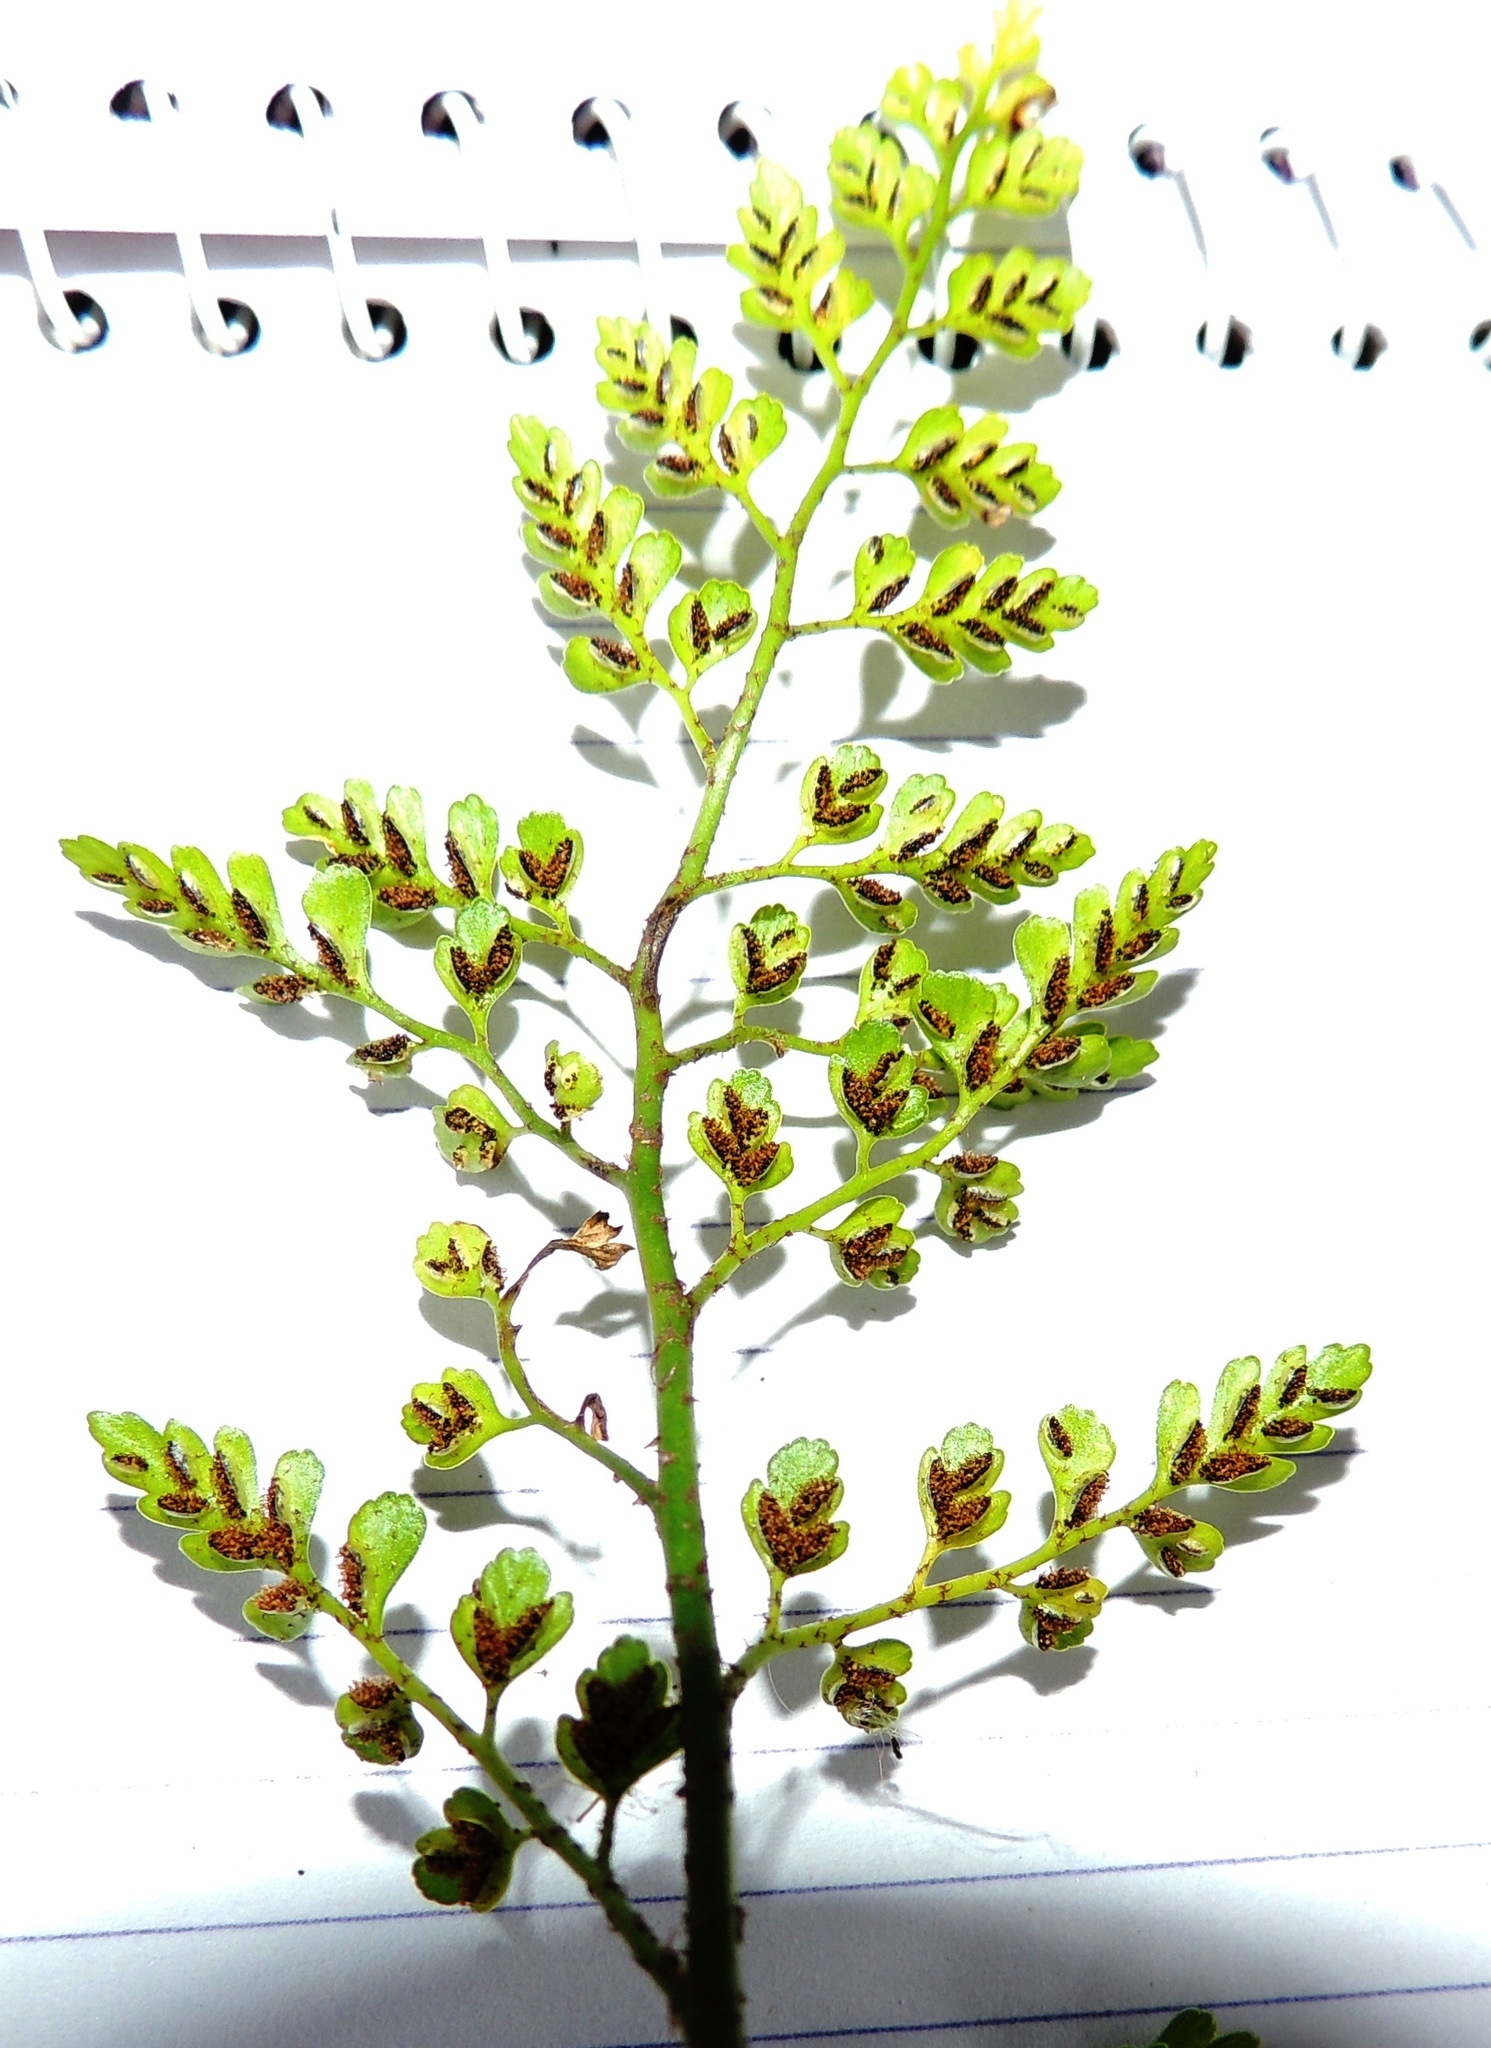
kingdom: Plantae
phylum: Tracheophyta
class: Polypodiopsida
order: Polypodiales
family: Aspleniaceae
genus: Asplenium
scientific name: Asplenium hookerianum
